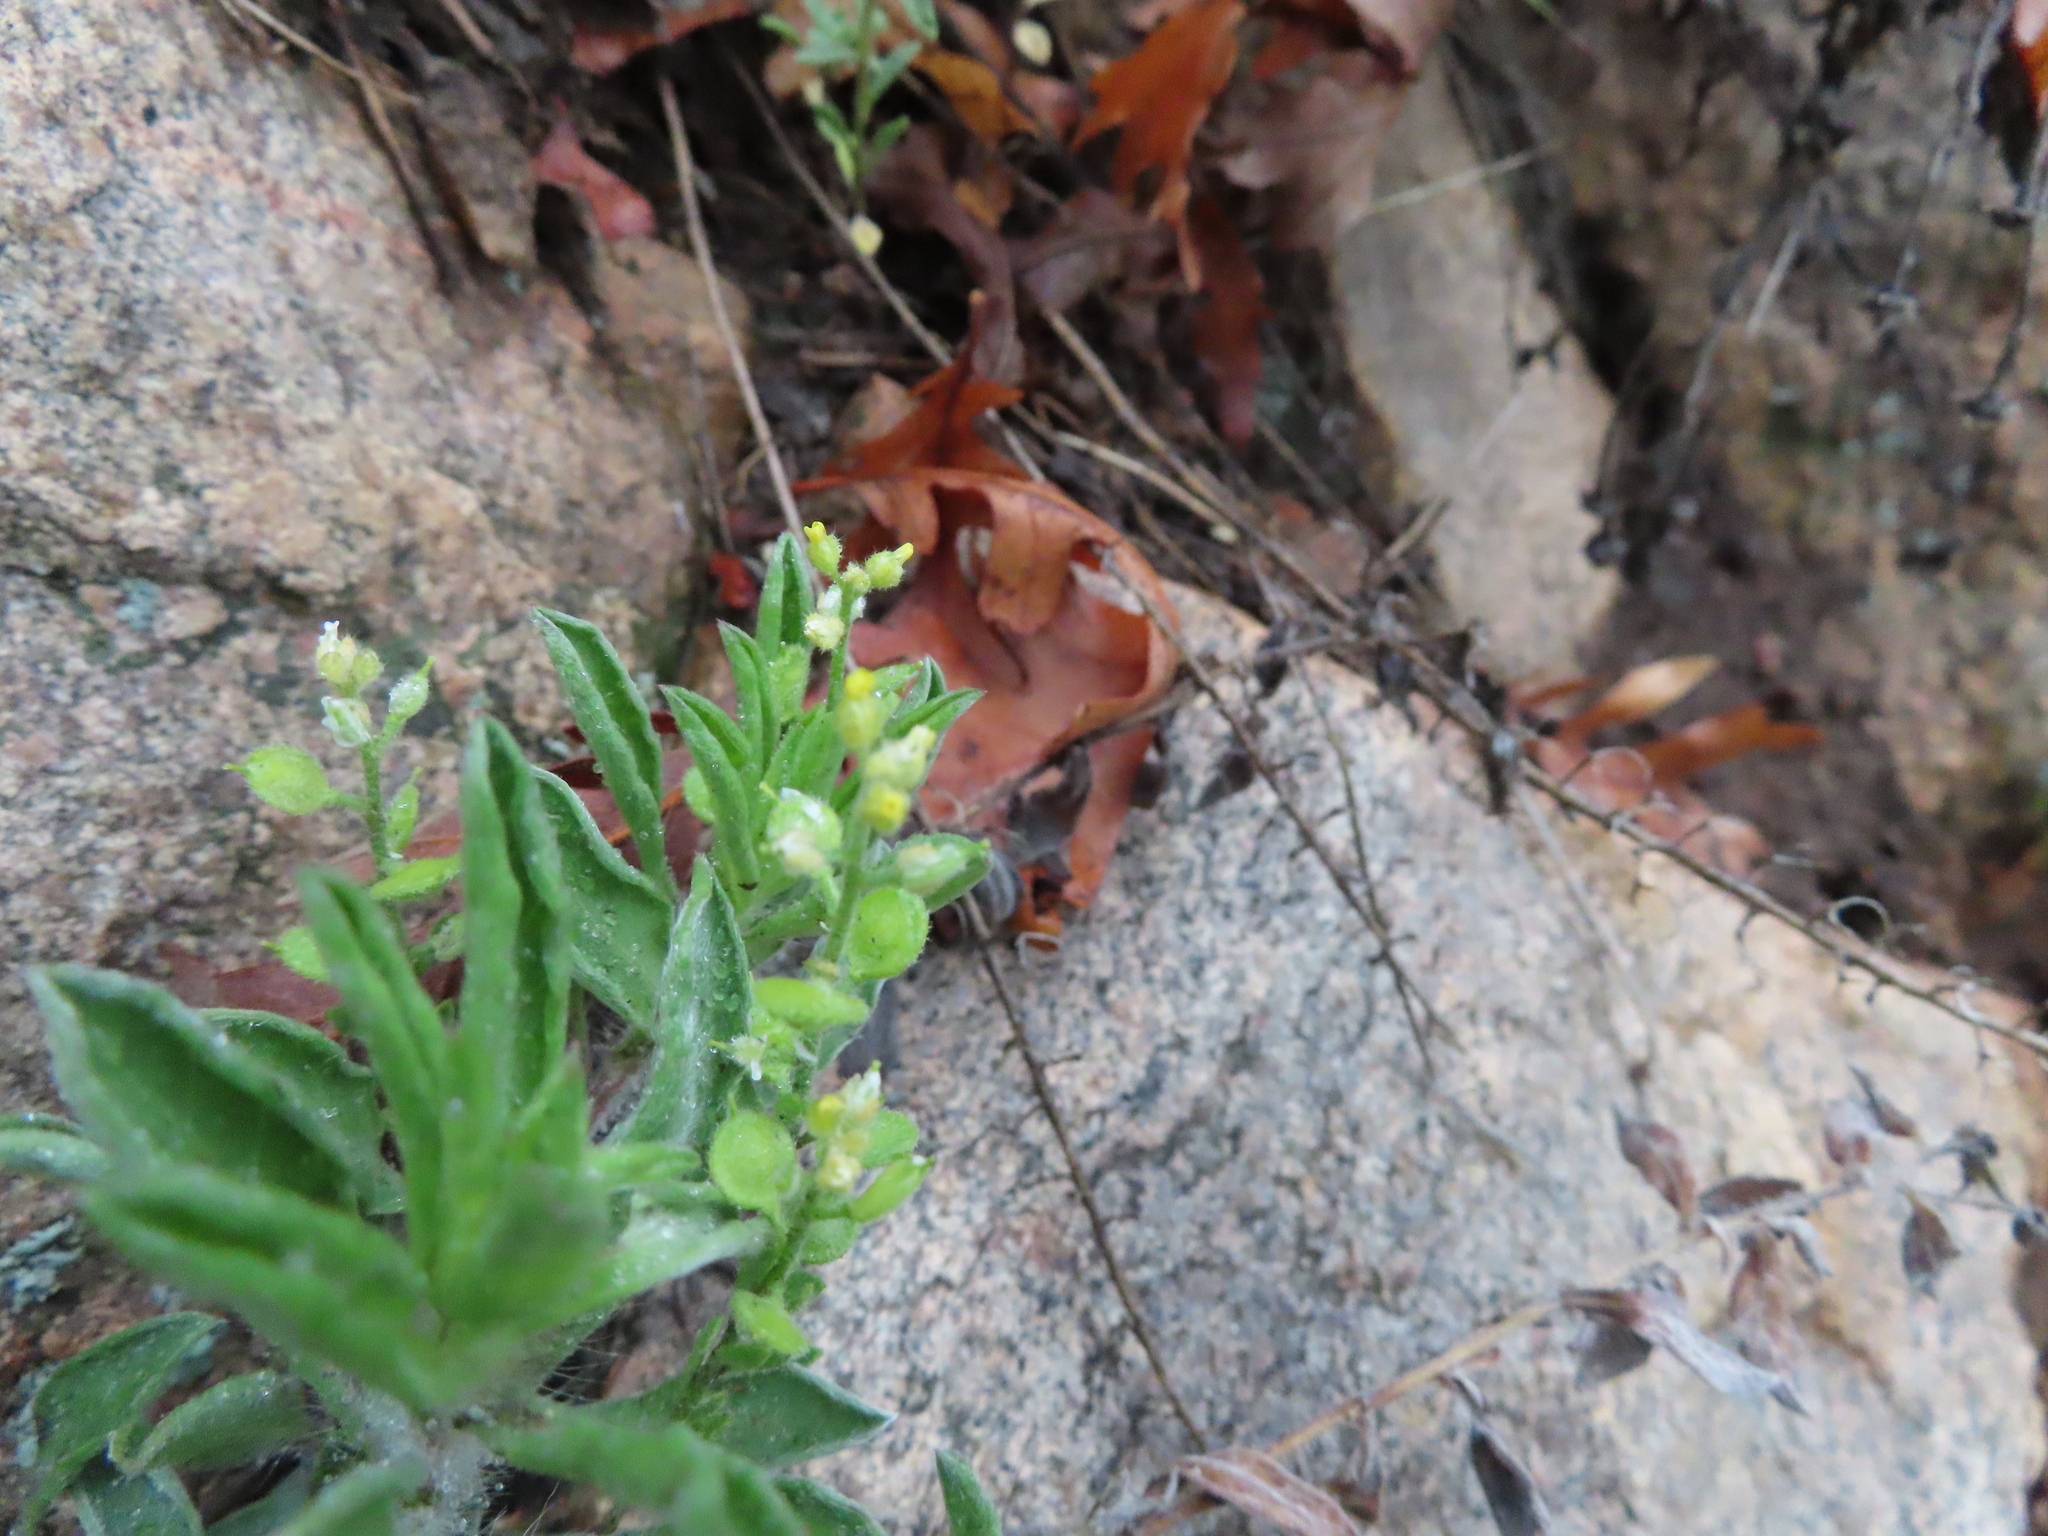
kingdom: Plantae
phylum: Tracheophyta
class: Magnoliopsida
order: Brassicales
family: Brassicaceae
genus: Alyssum
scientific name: Alyssum simplex
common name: Alyssum
